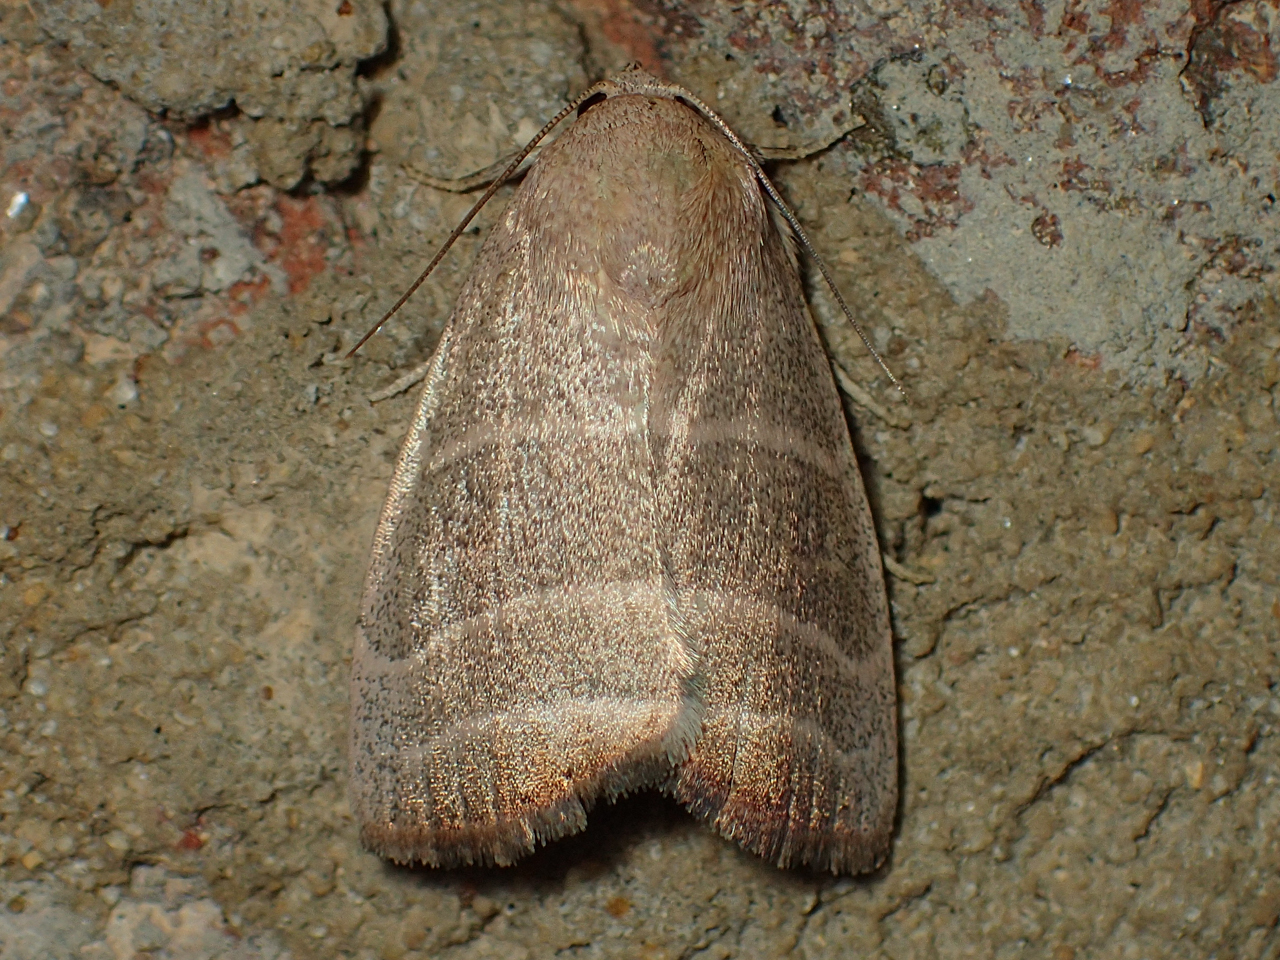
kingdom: Animalia
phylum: Arthropoda
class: Insecta
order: Lepidoptera
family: Noctuidae
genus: Bagisara
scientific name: Bagisara rectifascia
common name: Straight lined mallow moth
